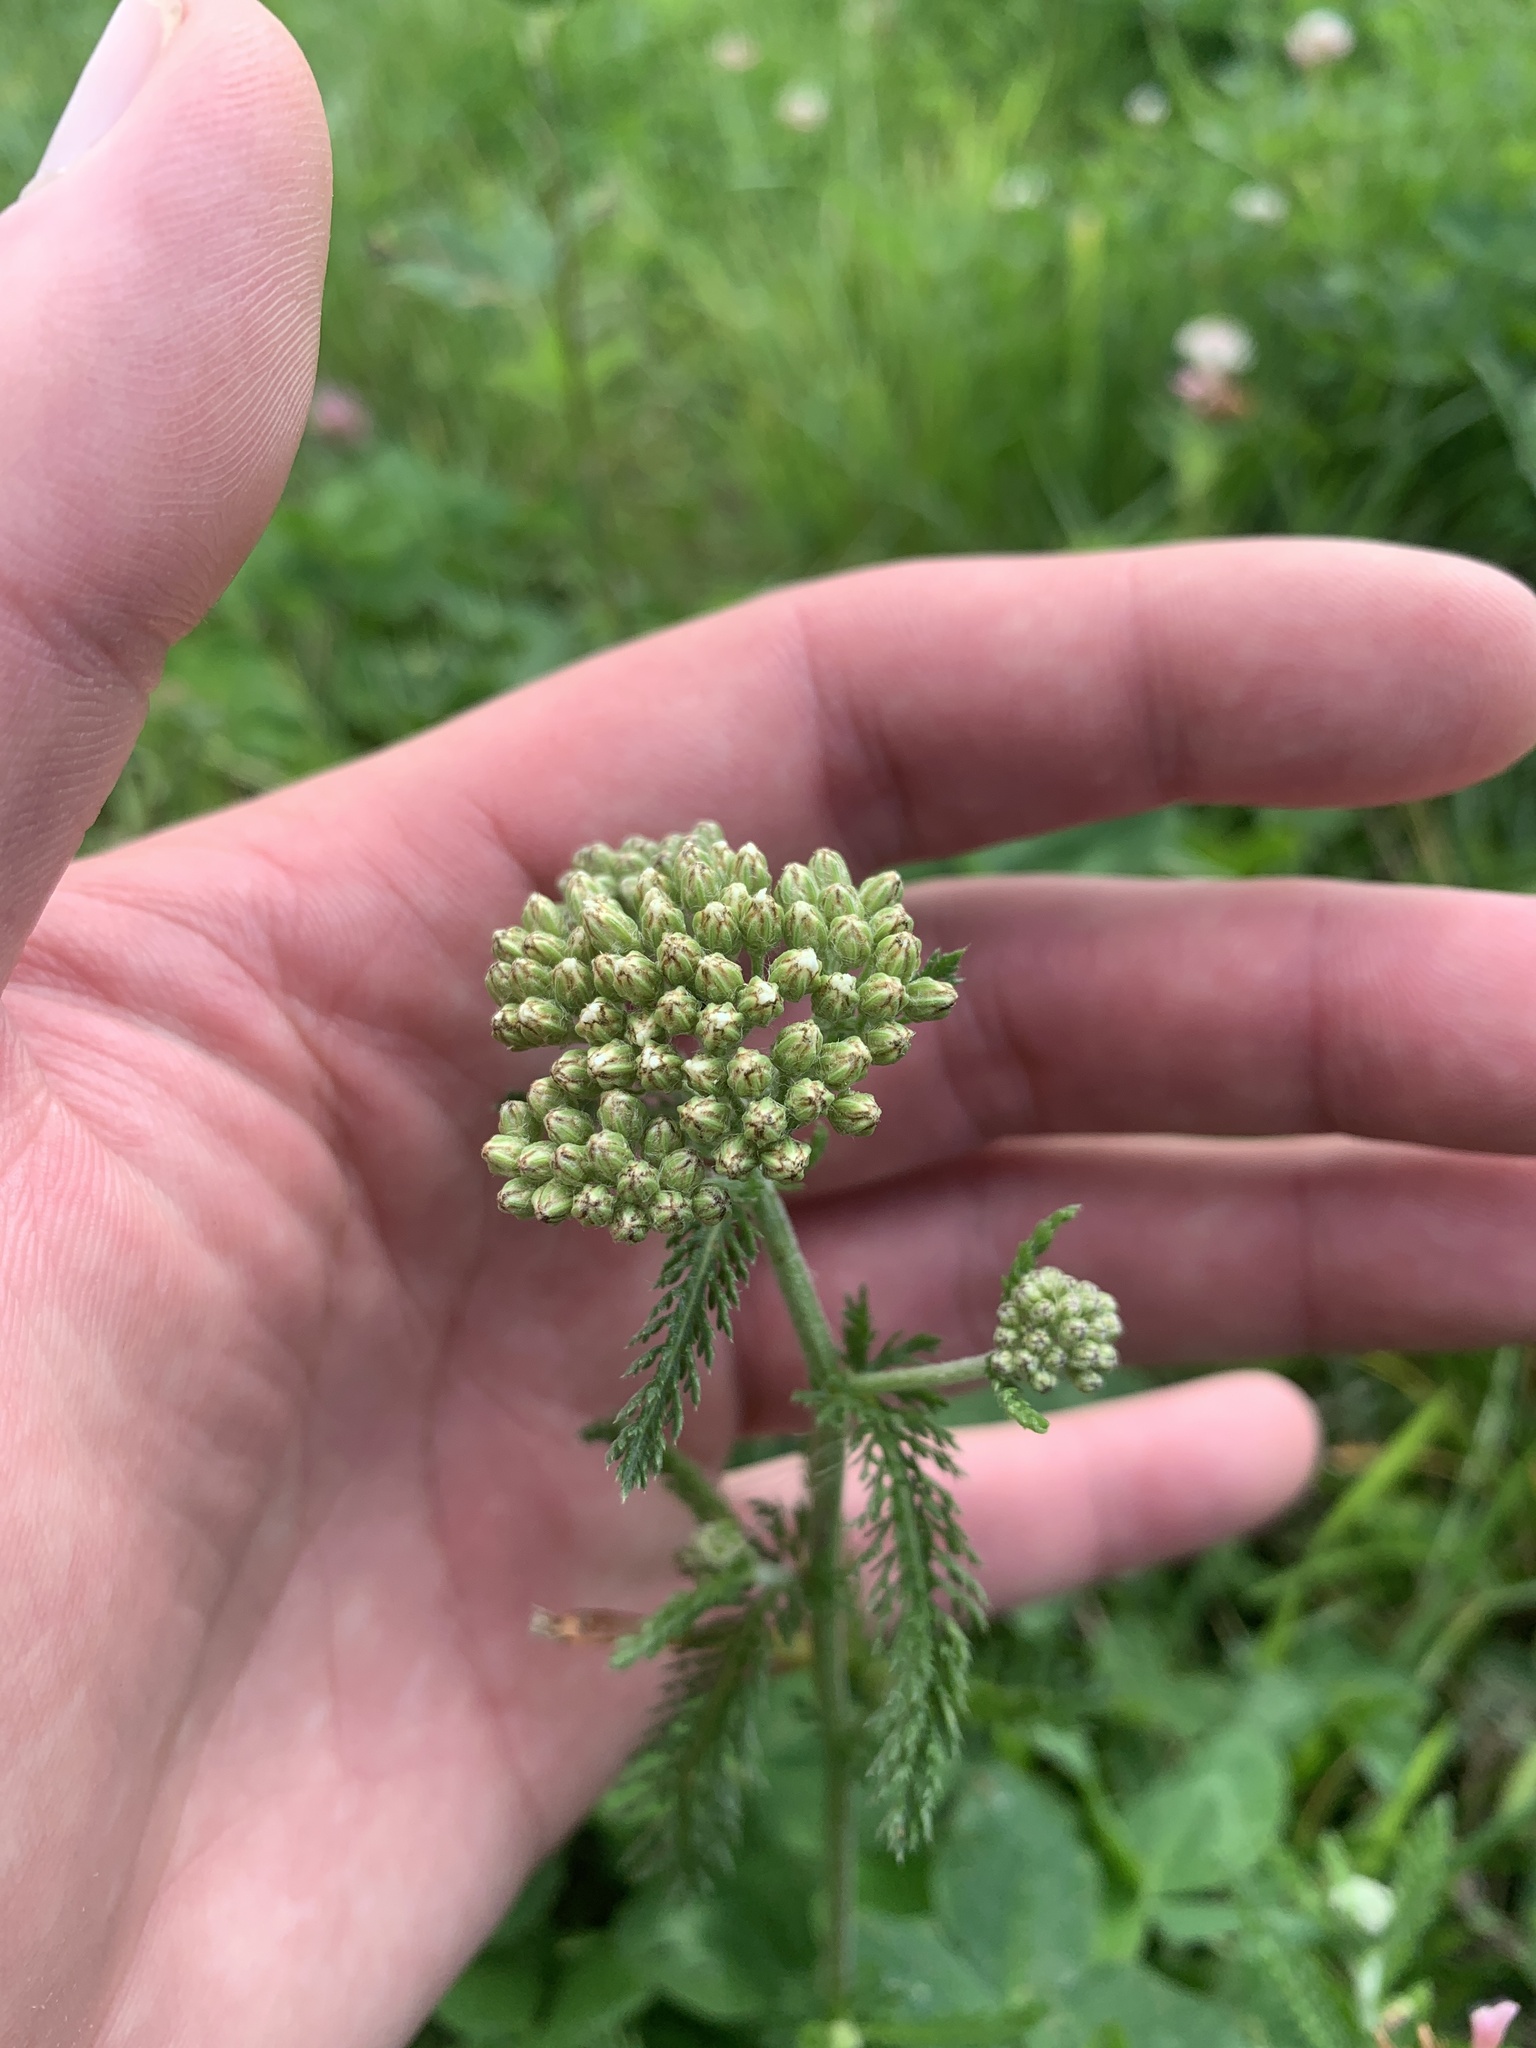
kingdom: Plantae
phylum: Tracheophyta
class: Magnoliopsida
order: Asterales
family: Asteraceae
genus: Achillea
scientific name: Achillea millefolium
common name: Yarrow
